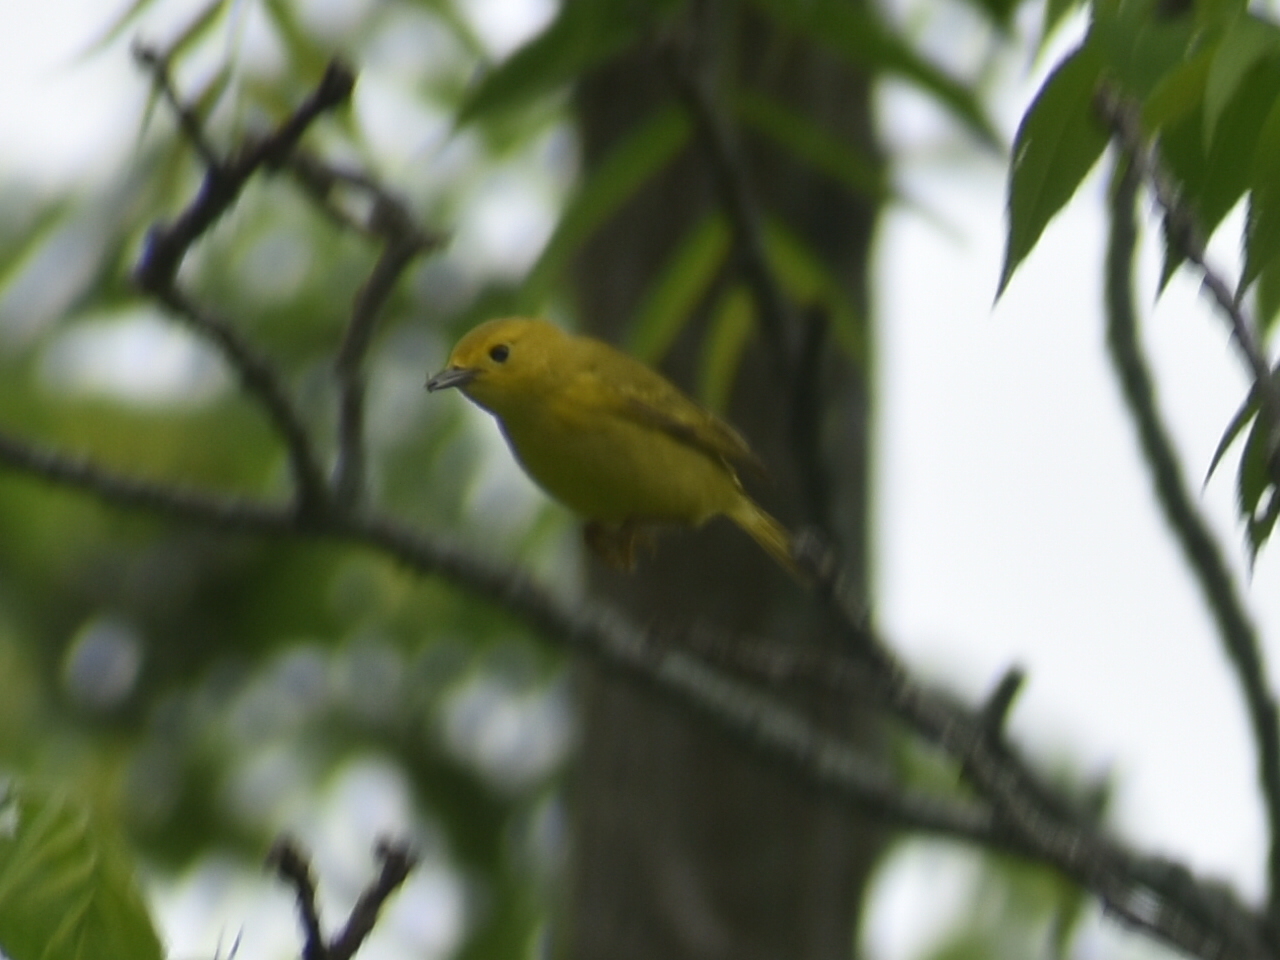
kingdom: Animalia
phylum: Chordata
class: Aves
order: Passeriformes
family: Parulidae
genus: Setophaga
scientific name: Setophaga petechia
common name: Yellow warbler
